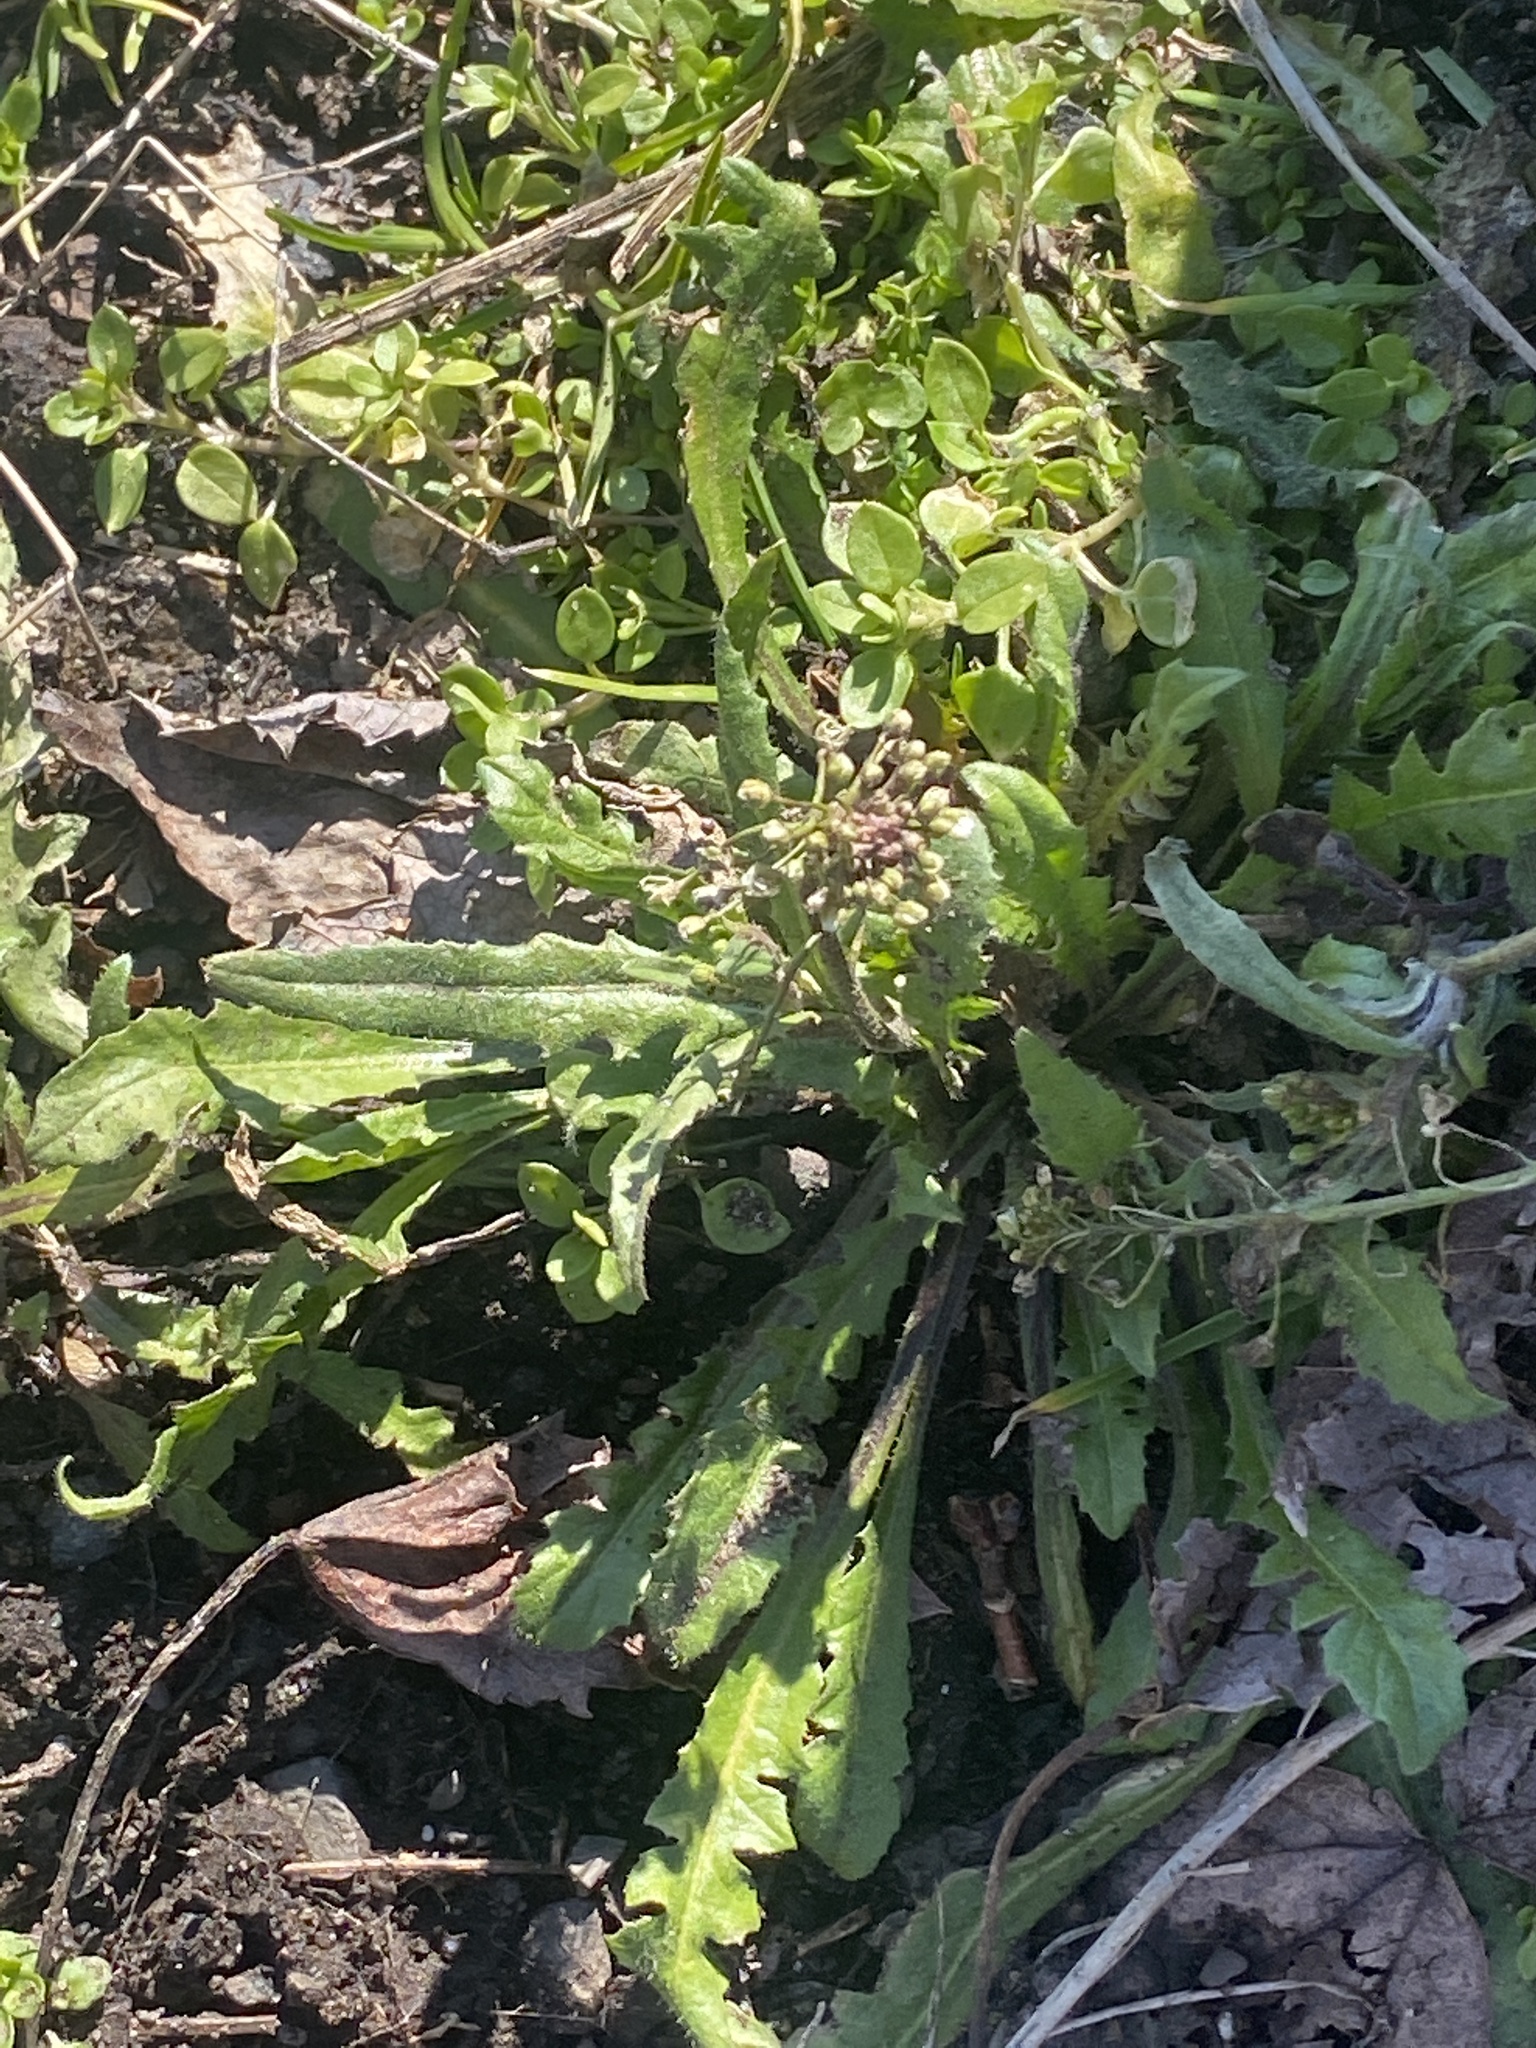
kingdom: Plantae
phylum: Tracheophyta
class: Magnoliopsida
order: Brassicales
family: Brassicaceae
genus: Capsella
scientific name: Capsella bursa-pastoris
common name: Shepherd's purse
